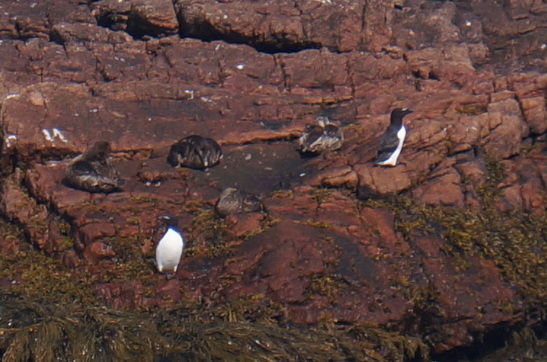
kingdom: Animalia
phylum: Chordata
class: Aves
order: Charadriiformes
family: Alcidae
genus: Alca
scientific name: Alca torda
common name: Razorbill
